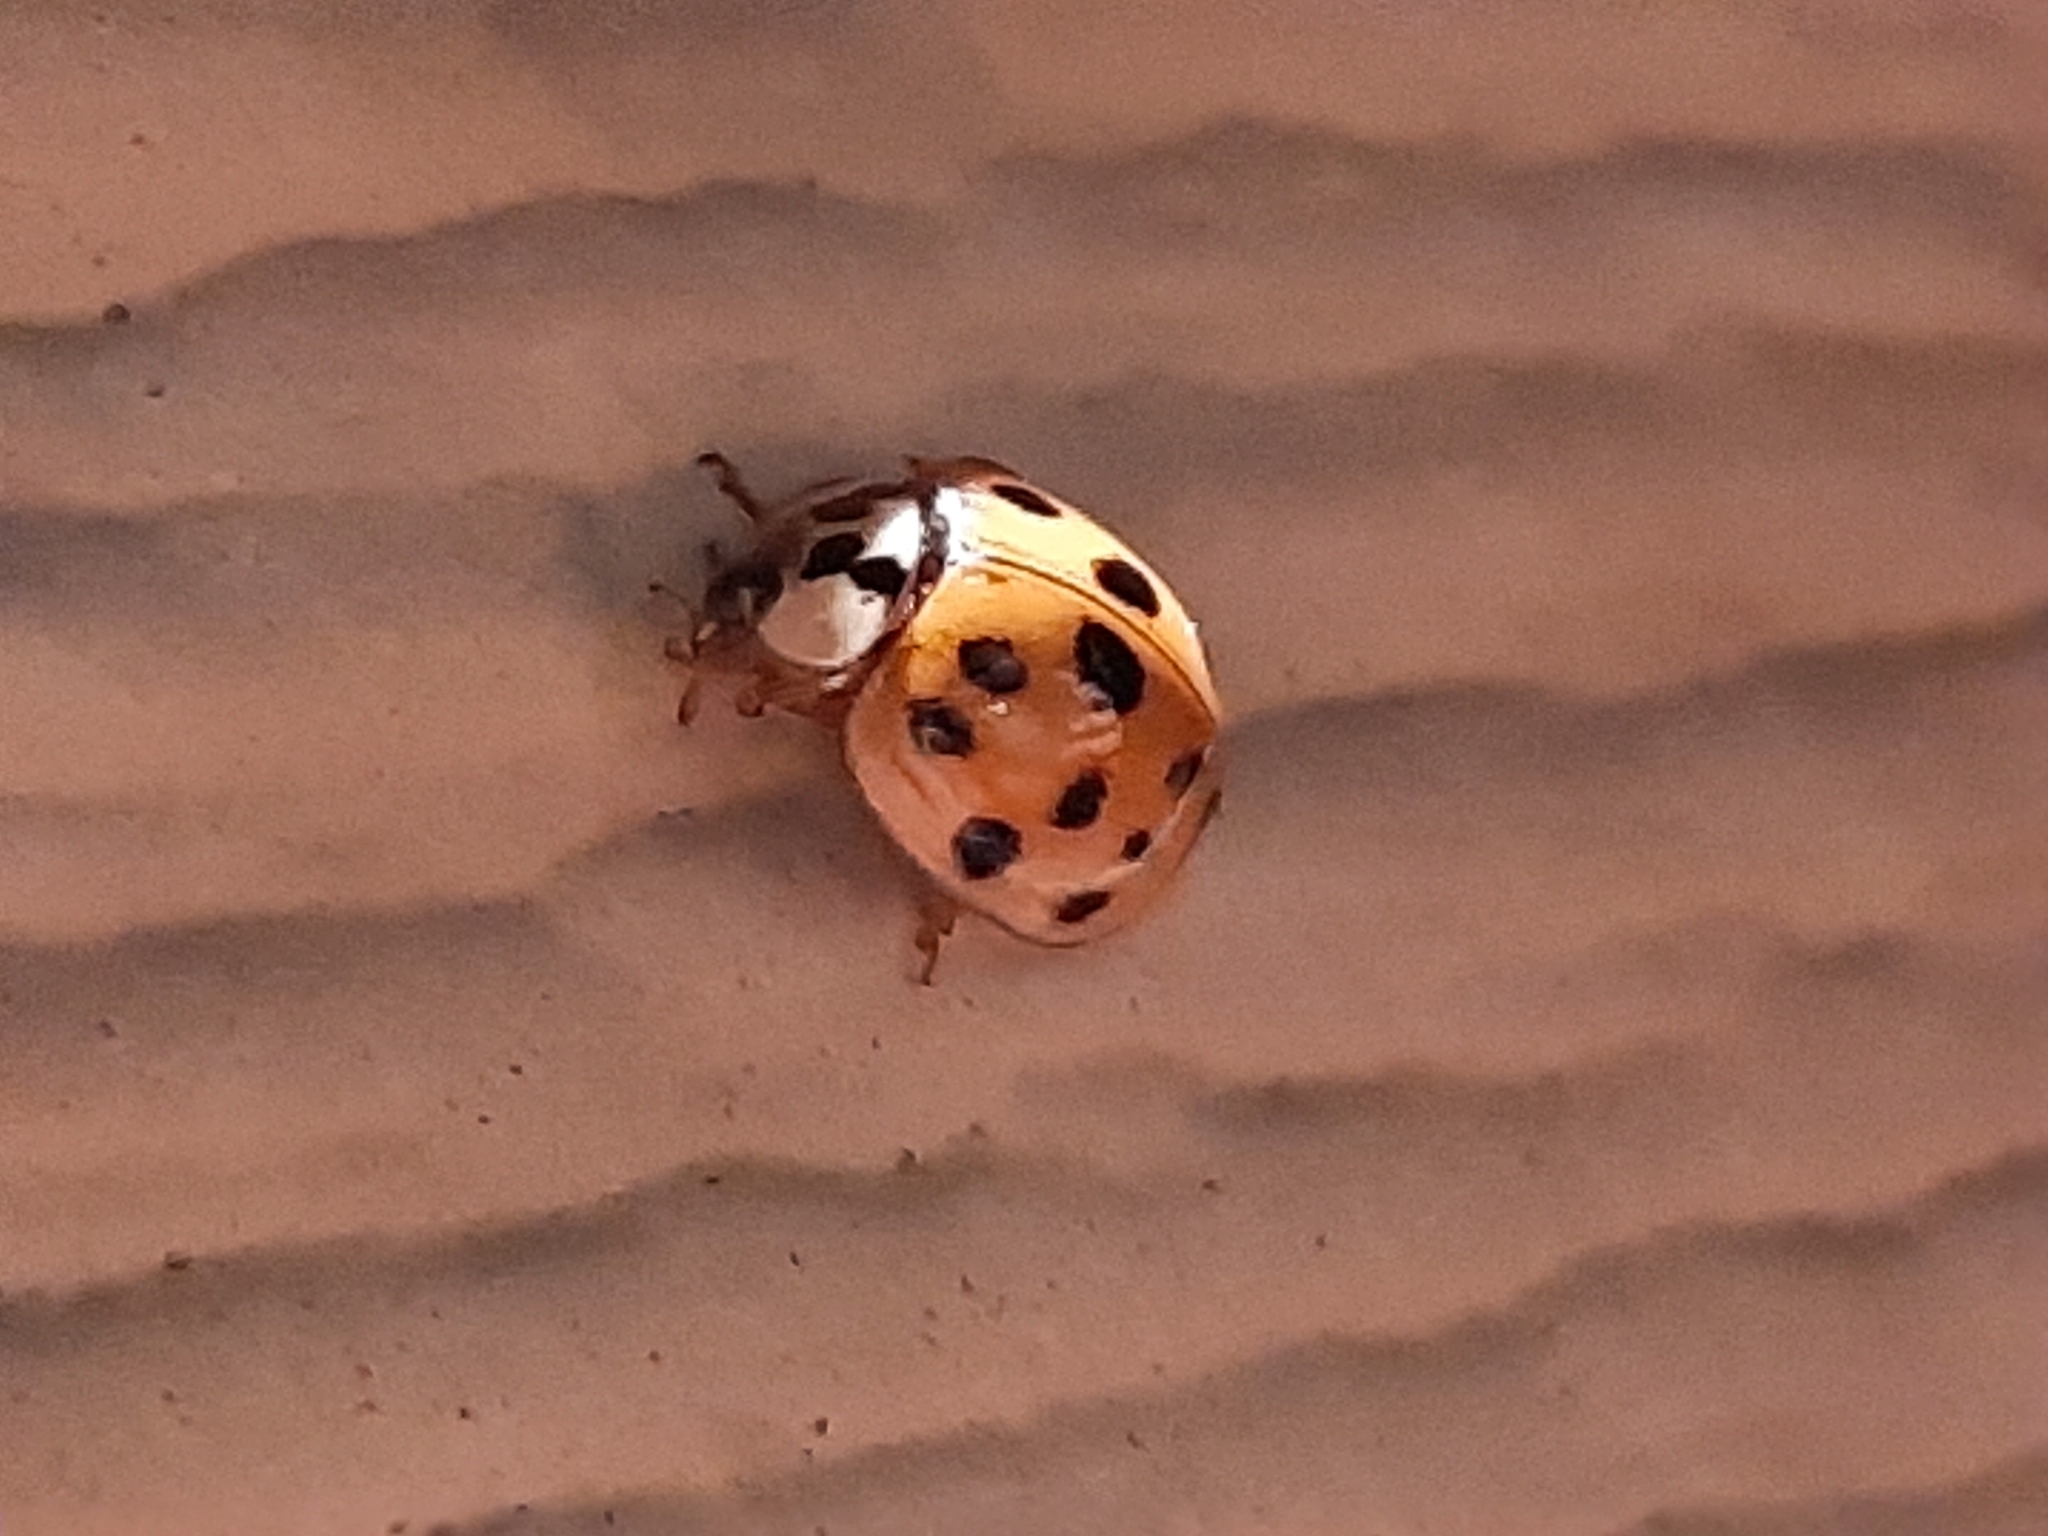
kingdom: Animalia
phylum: Arthropoda
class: Insecta
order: Coleoptera
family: Coccinellidae
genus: Harmonia
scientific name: Harmonia axyridis
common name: Harlequin ladybird
